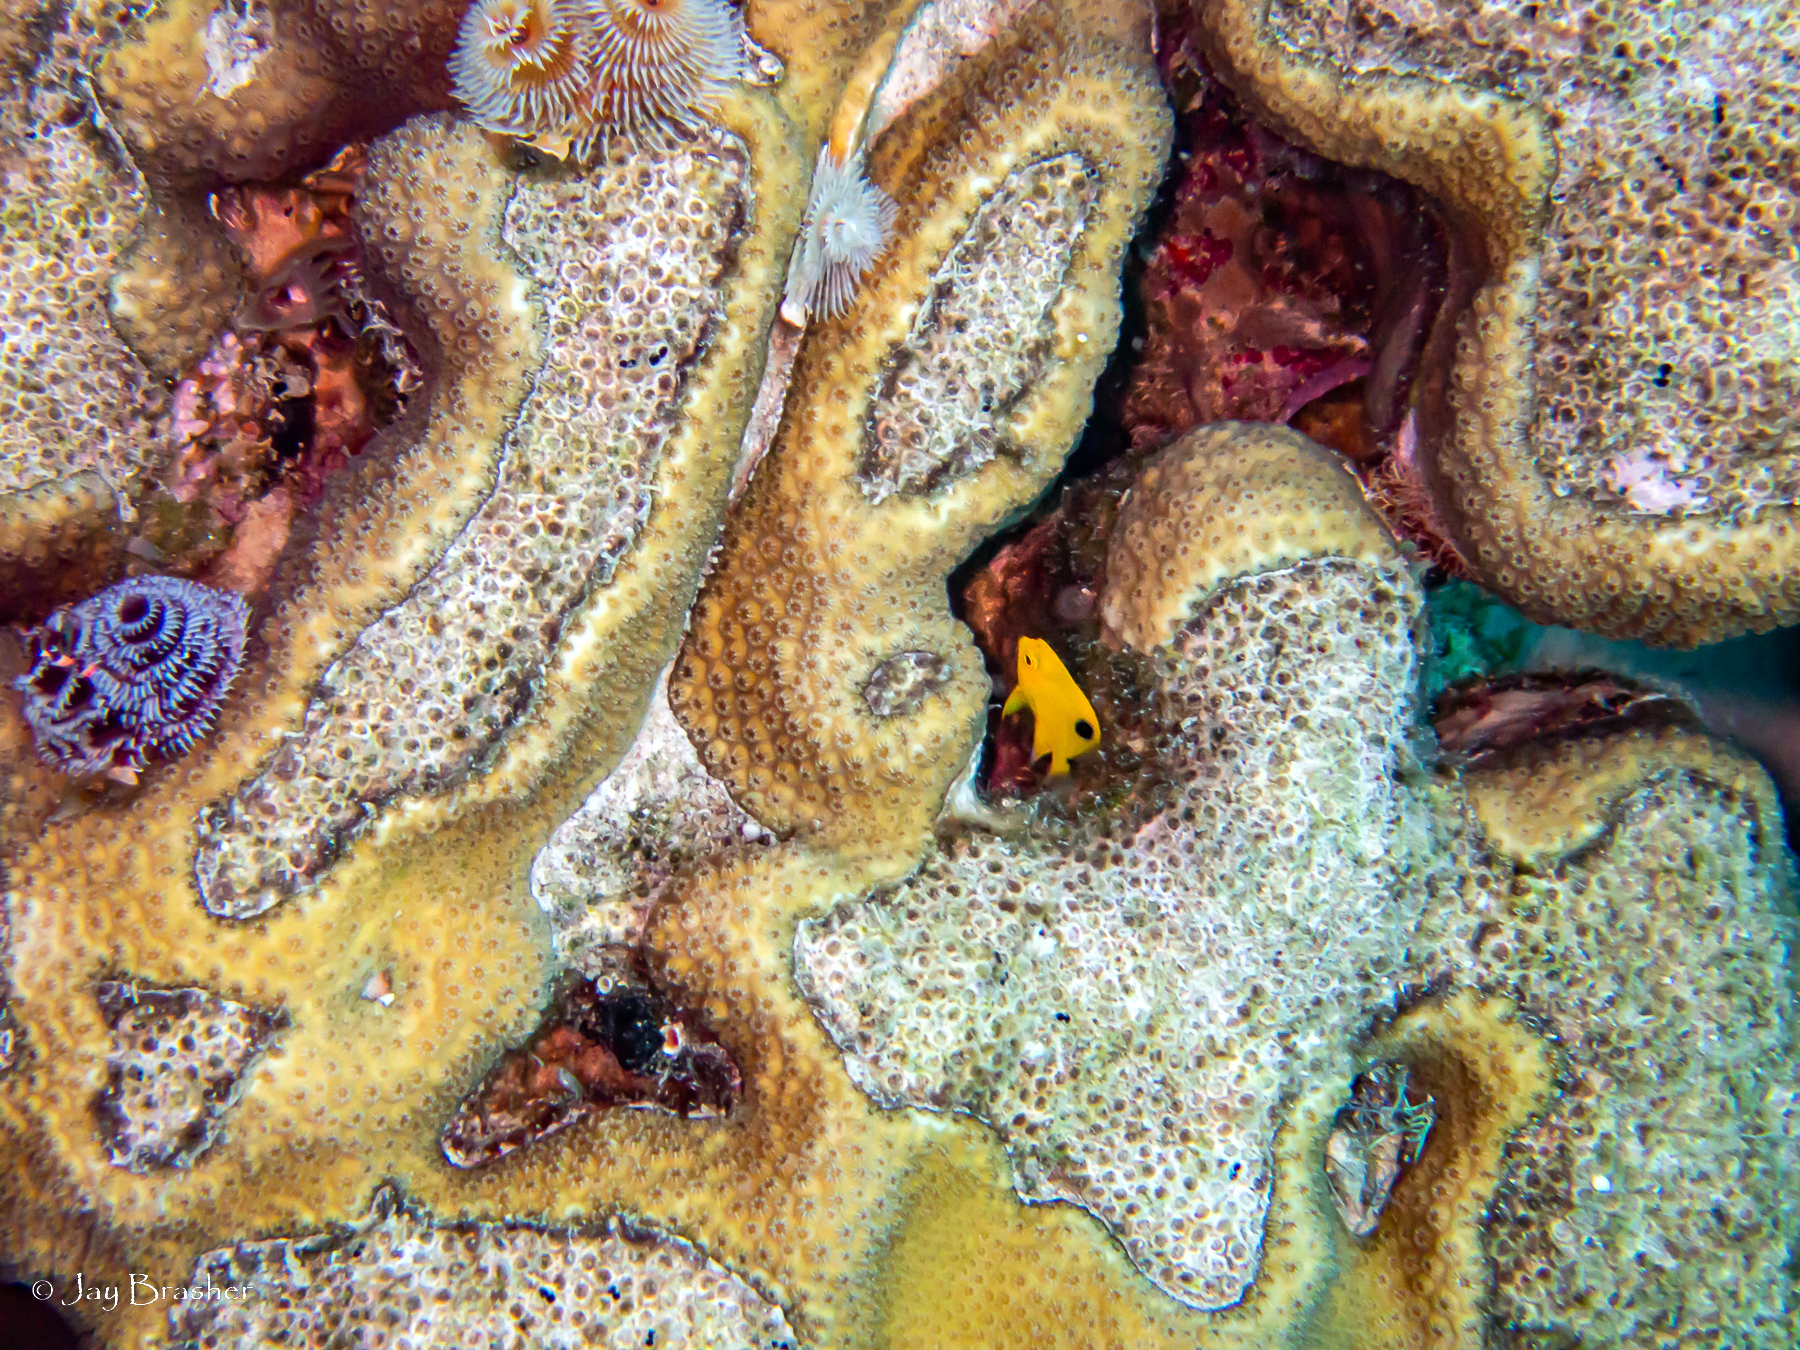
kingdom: Animalia
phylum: Chordata
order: Perciformes
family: Pomacentridae
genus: Stegastes
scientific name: Stegastes planifrons
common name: Threespot damselfish
